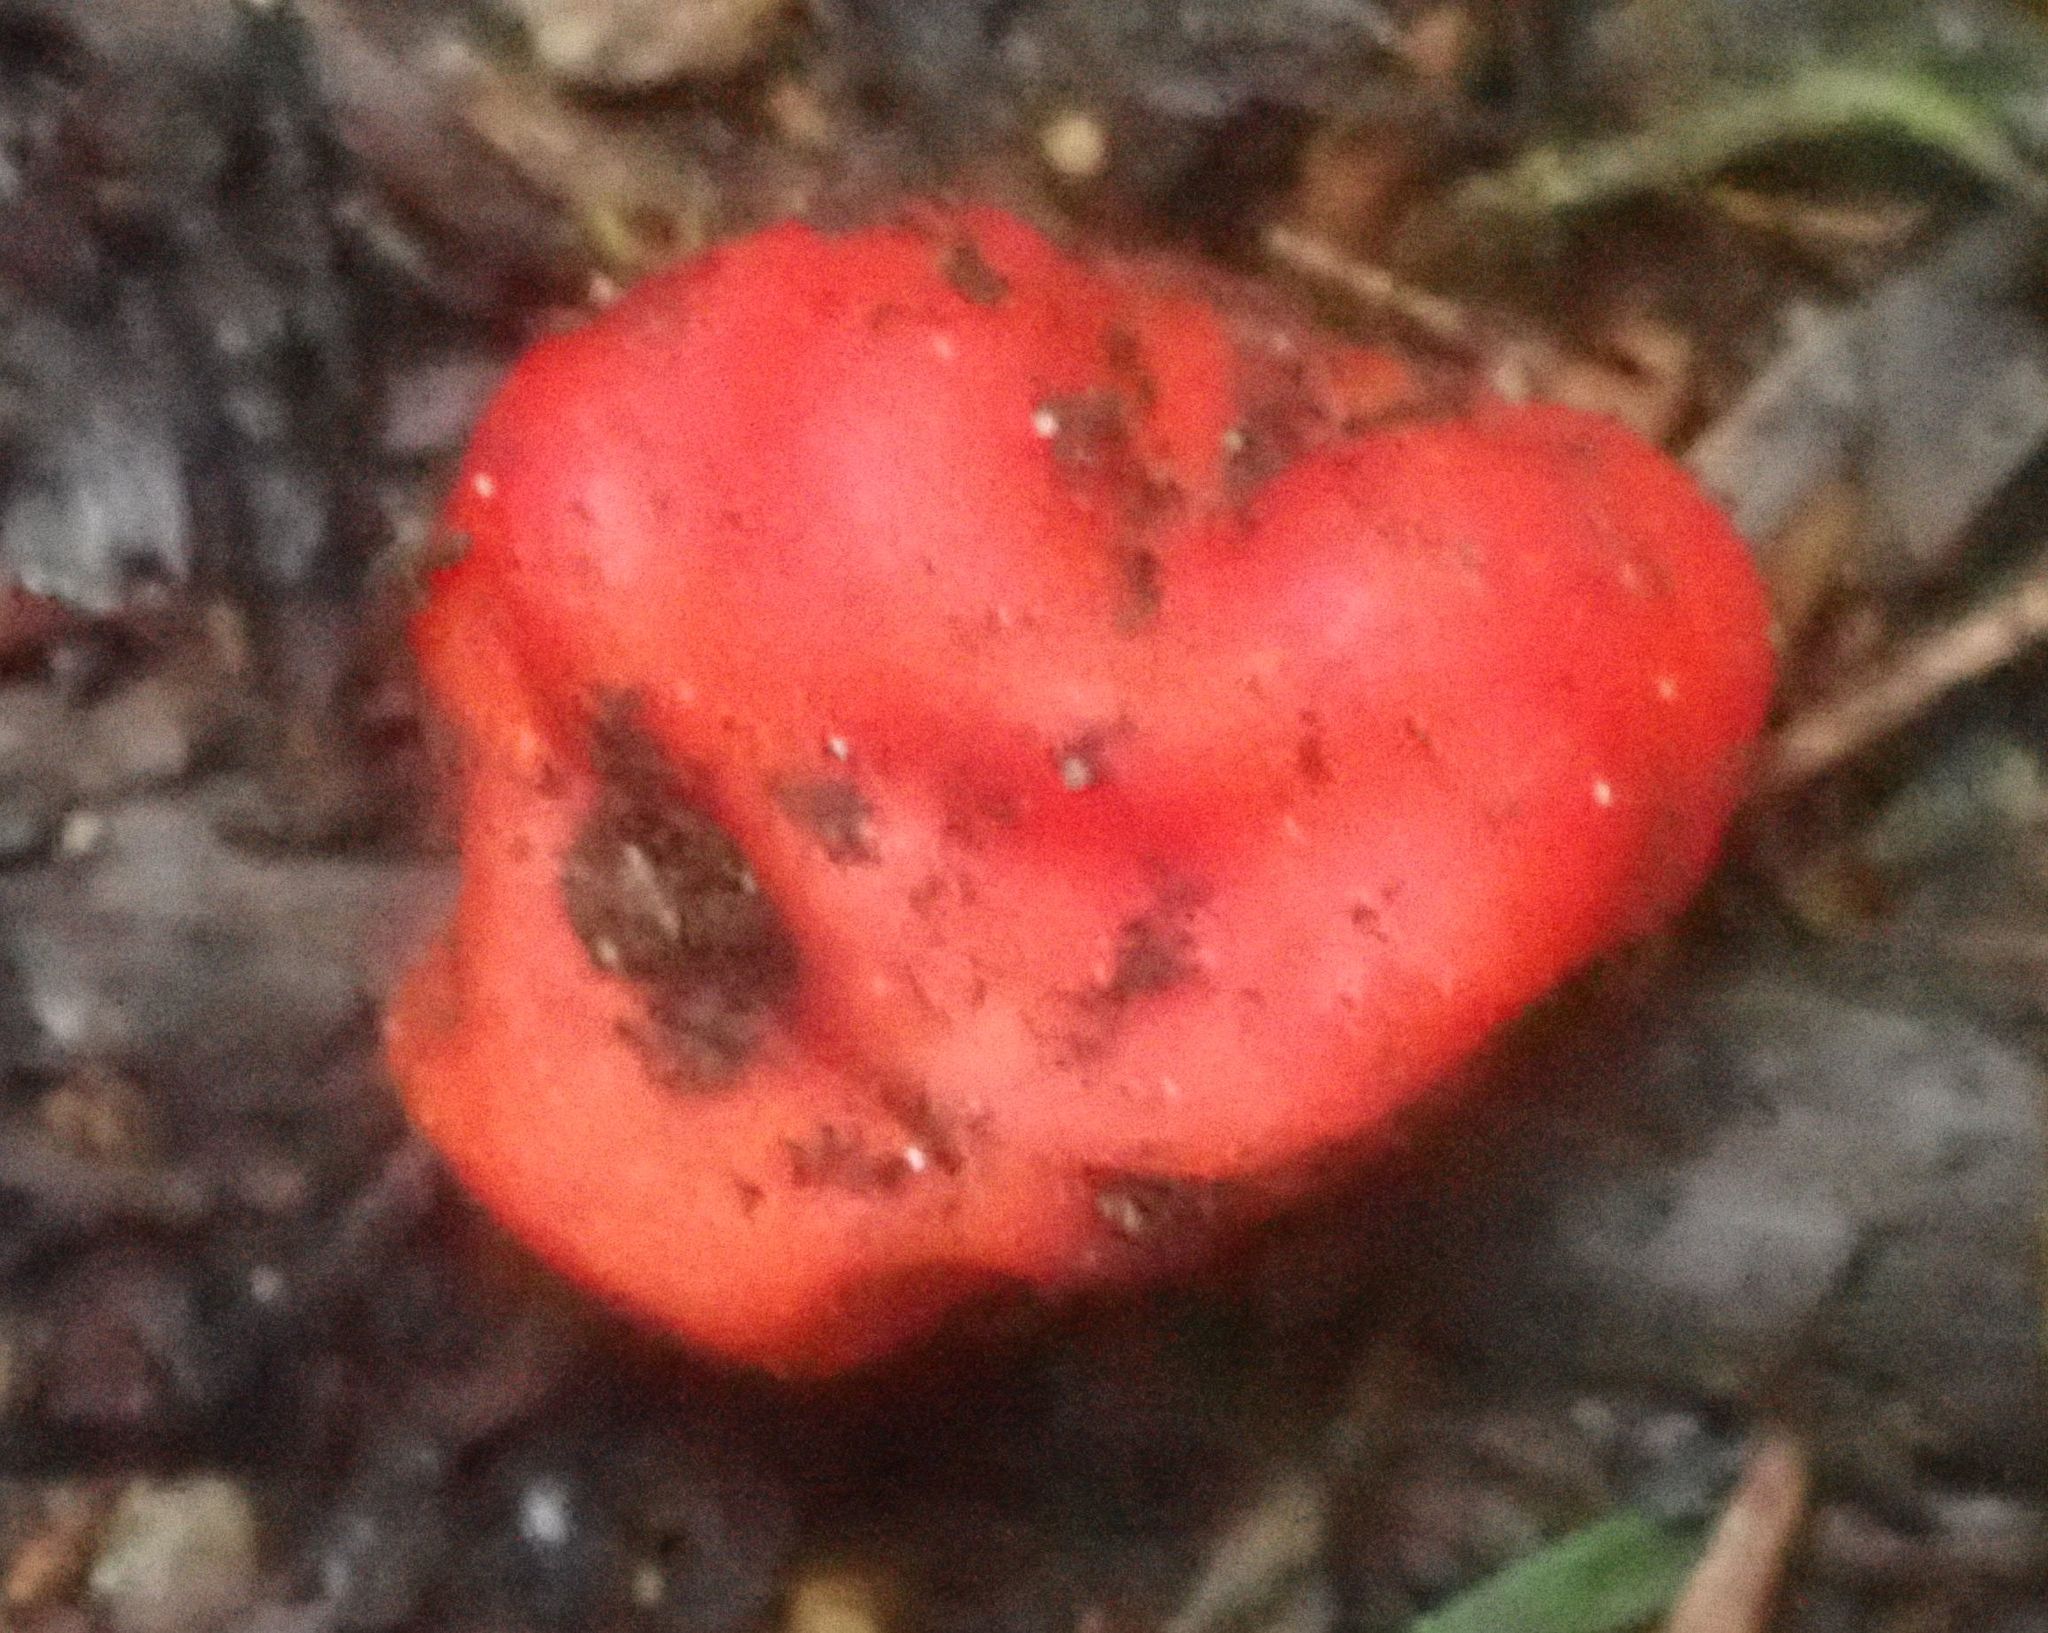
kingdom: Fungi
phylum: Ascomycota
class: Pezizomycetes
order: Pezizales
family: Pyronemataceae
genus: Paurocotylis
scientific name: Paurocotylis pila
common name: Scarlet berry truffle
